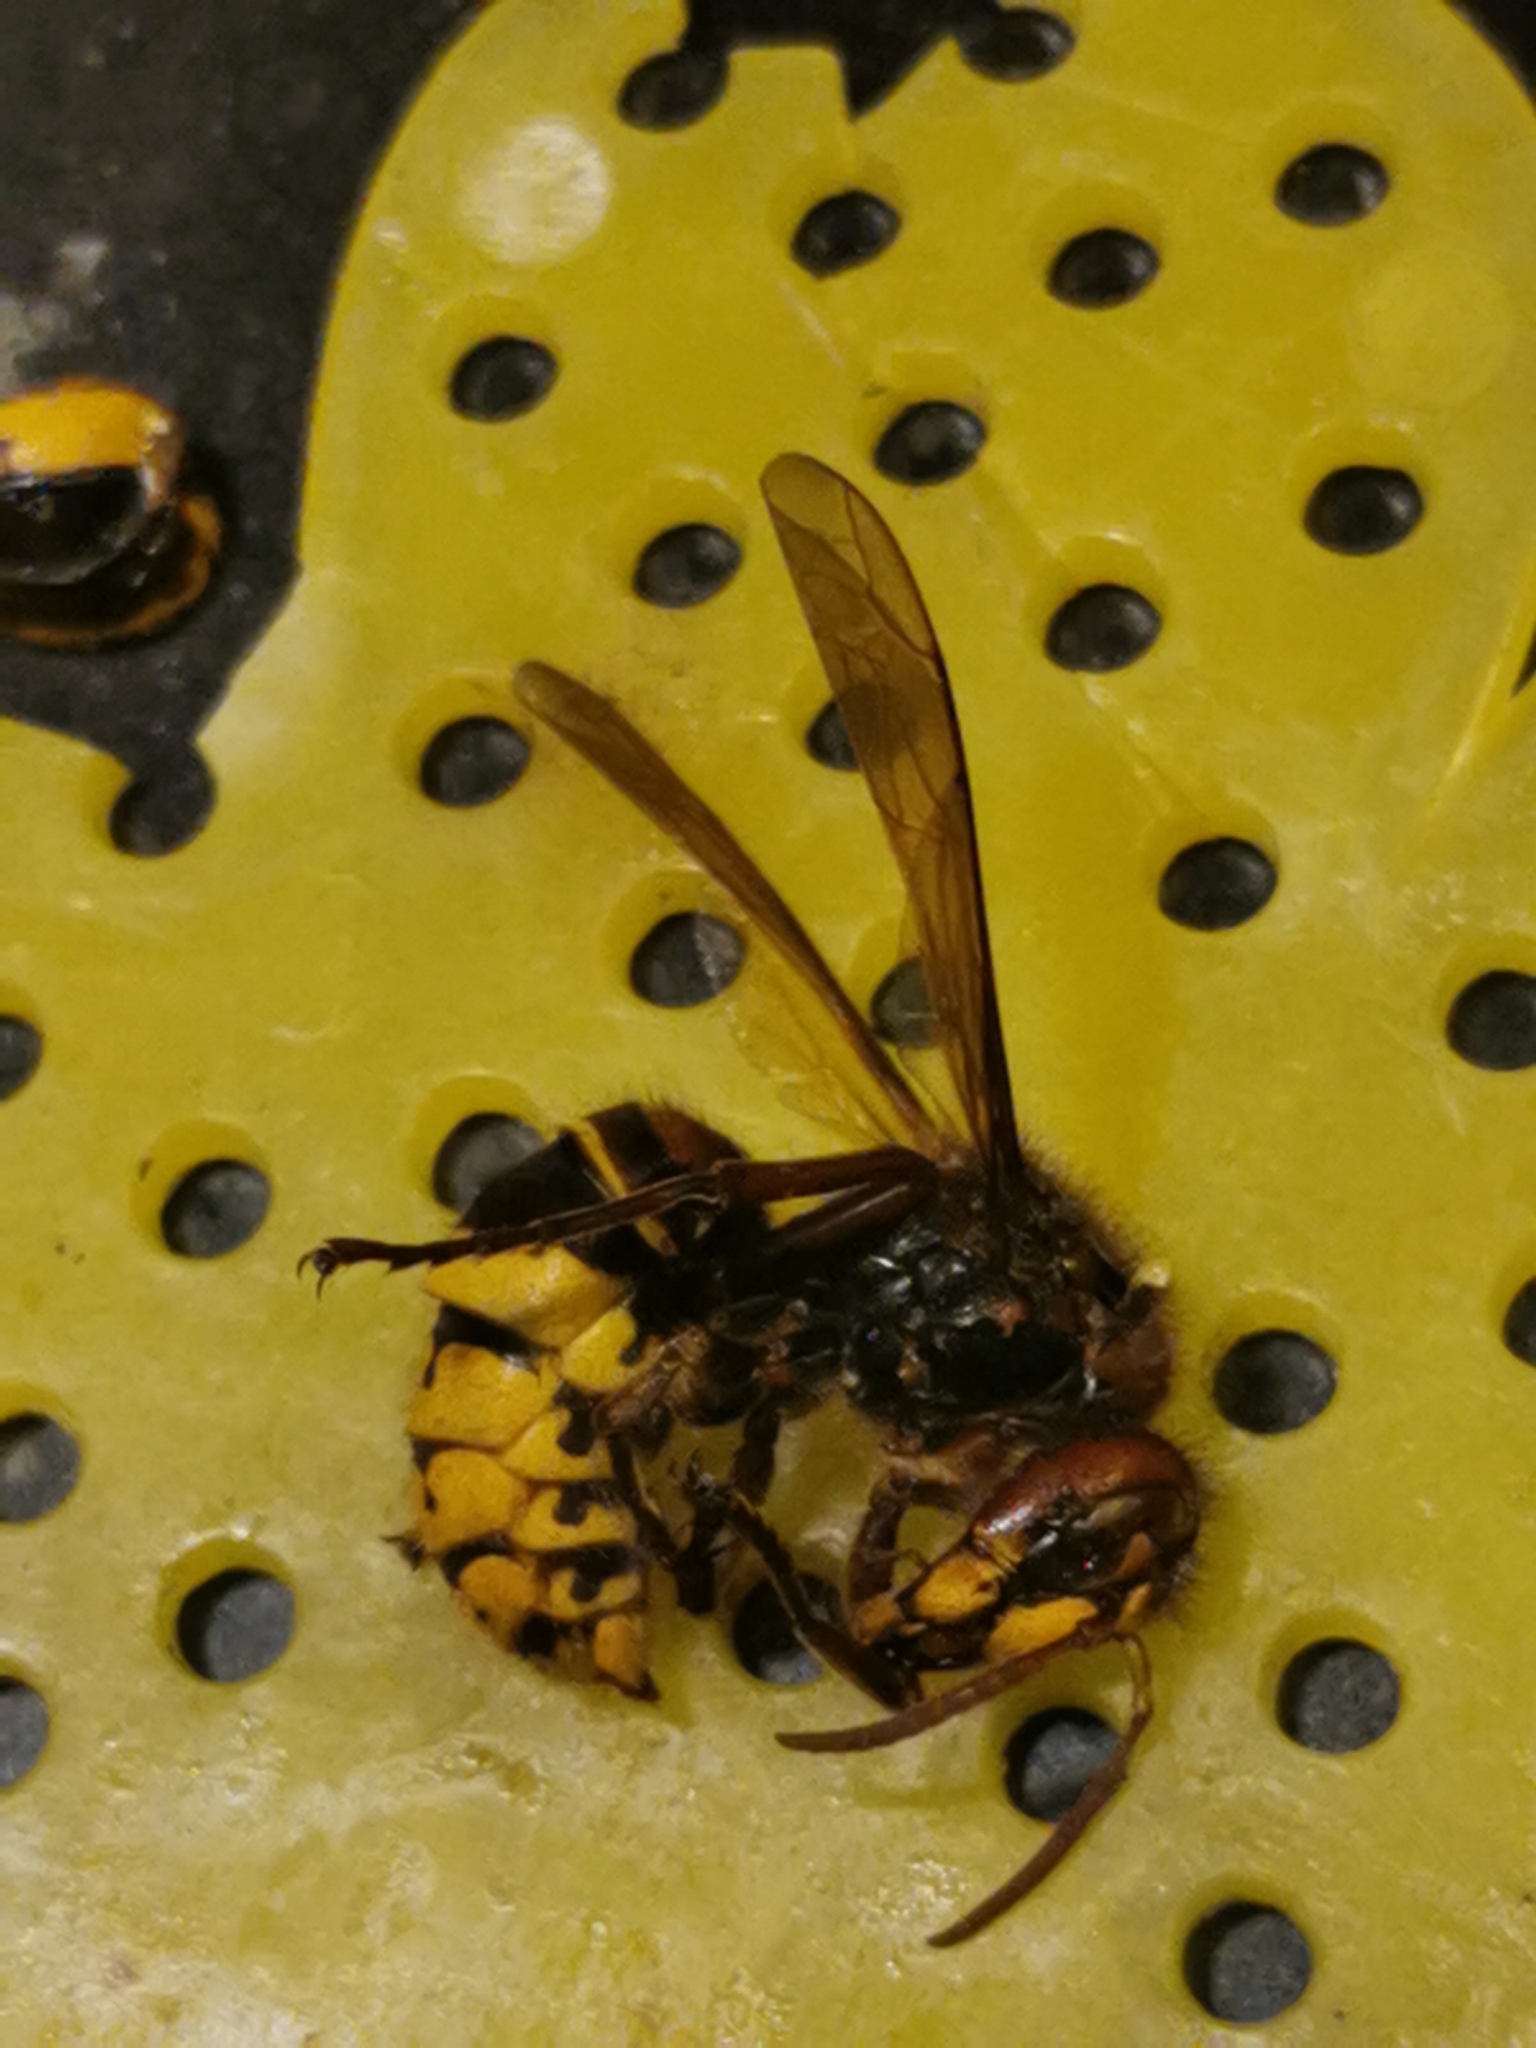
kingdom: Animalia
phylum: Arthropoda
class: Insecta
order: Hymenoptera
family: Vespidae
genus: Vespa
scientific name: Vespa crabro
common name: Hornet
